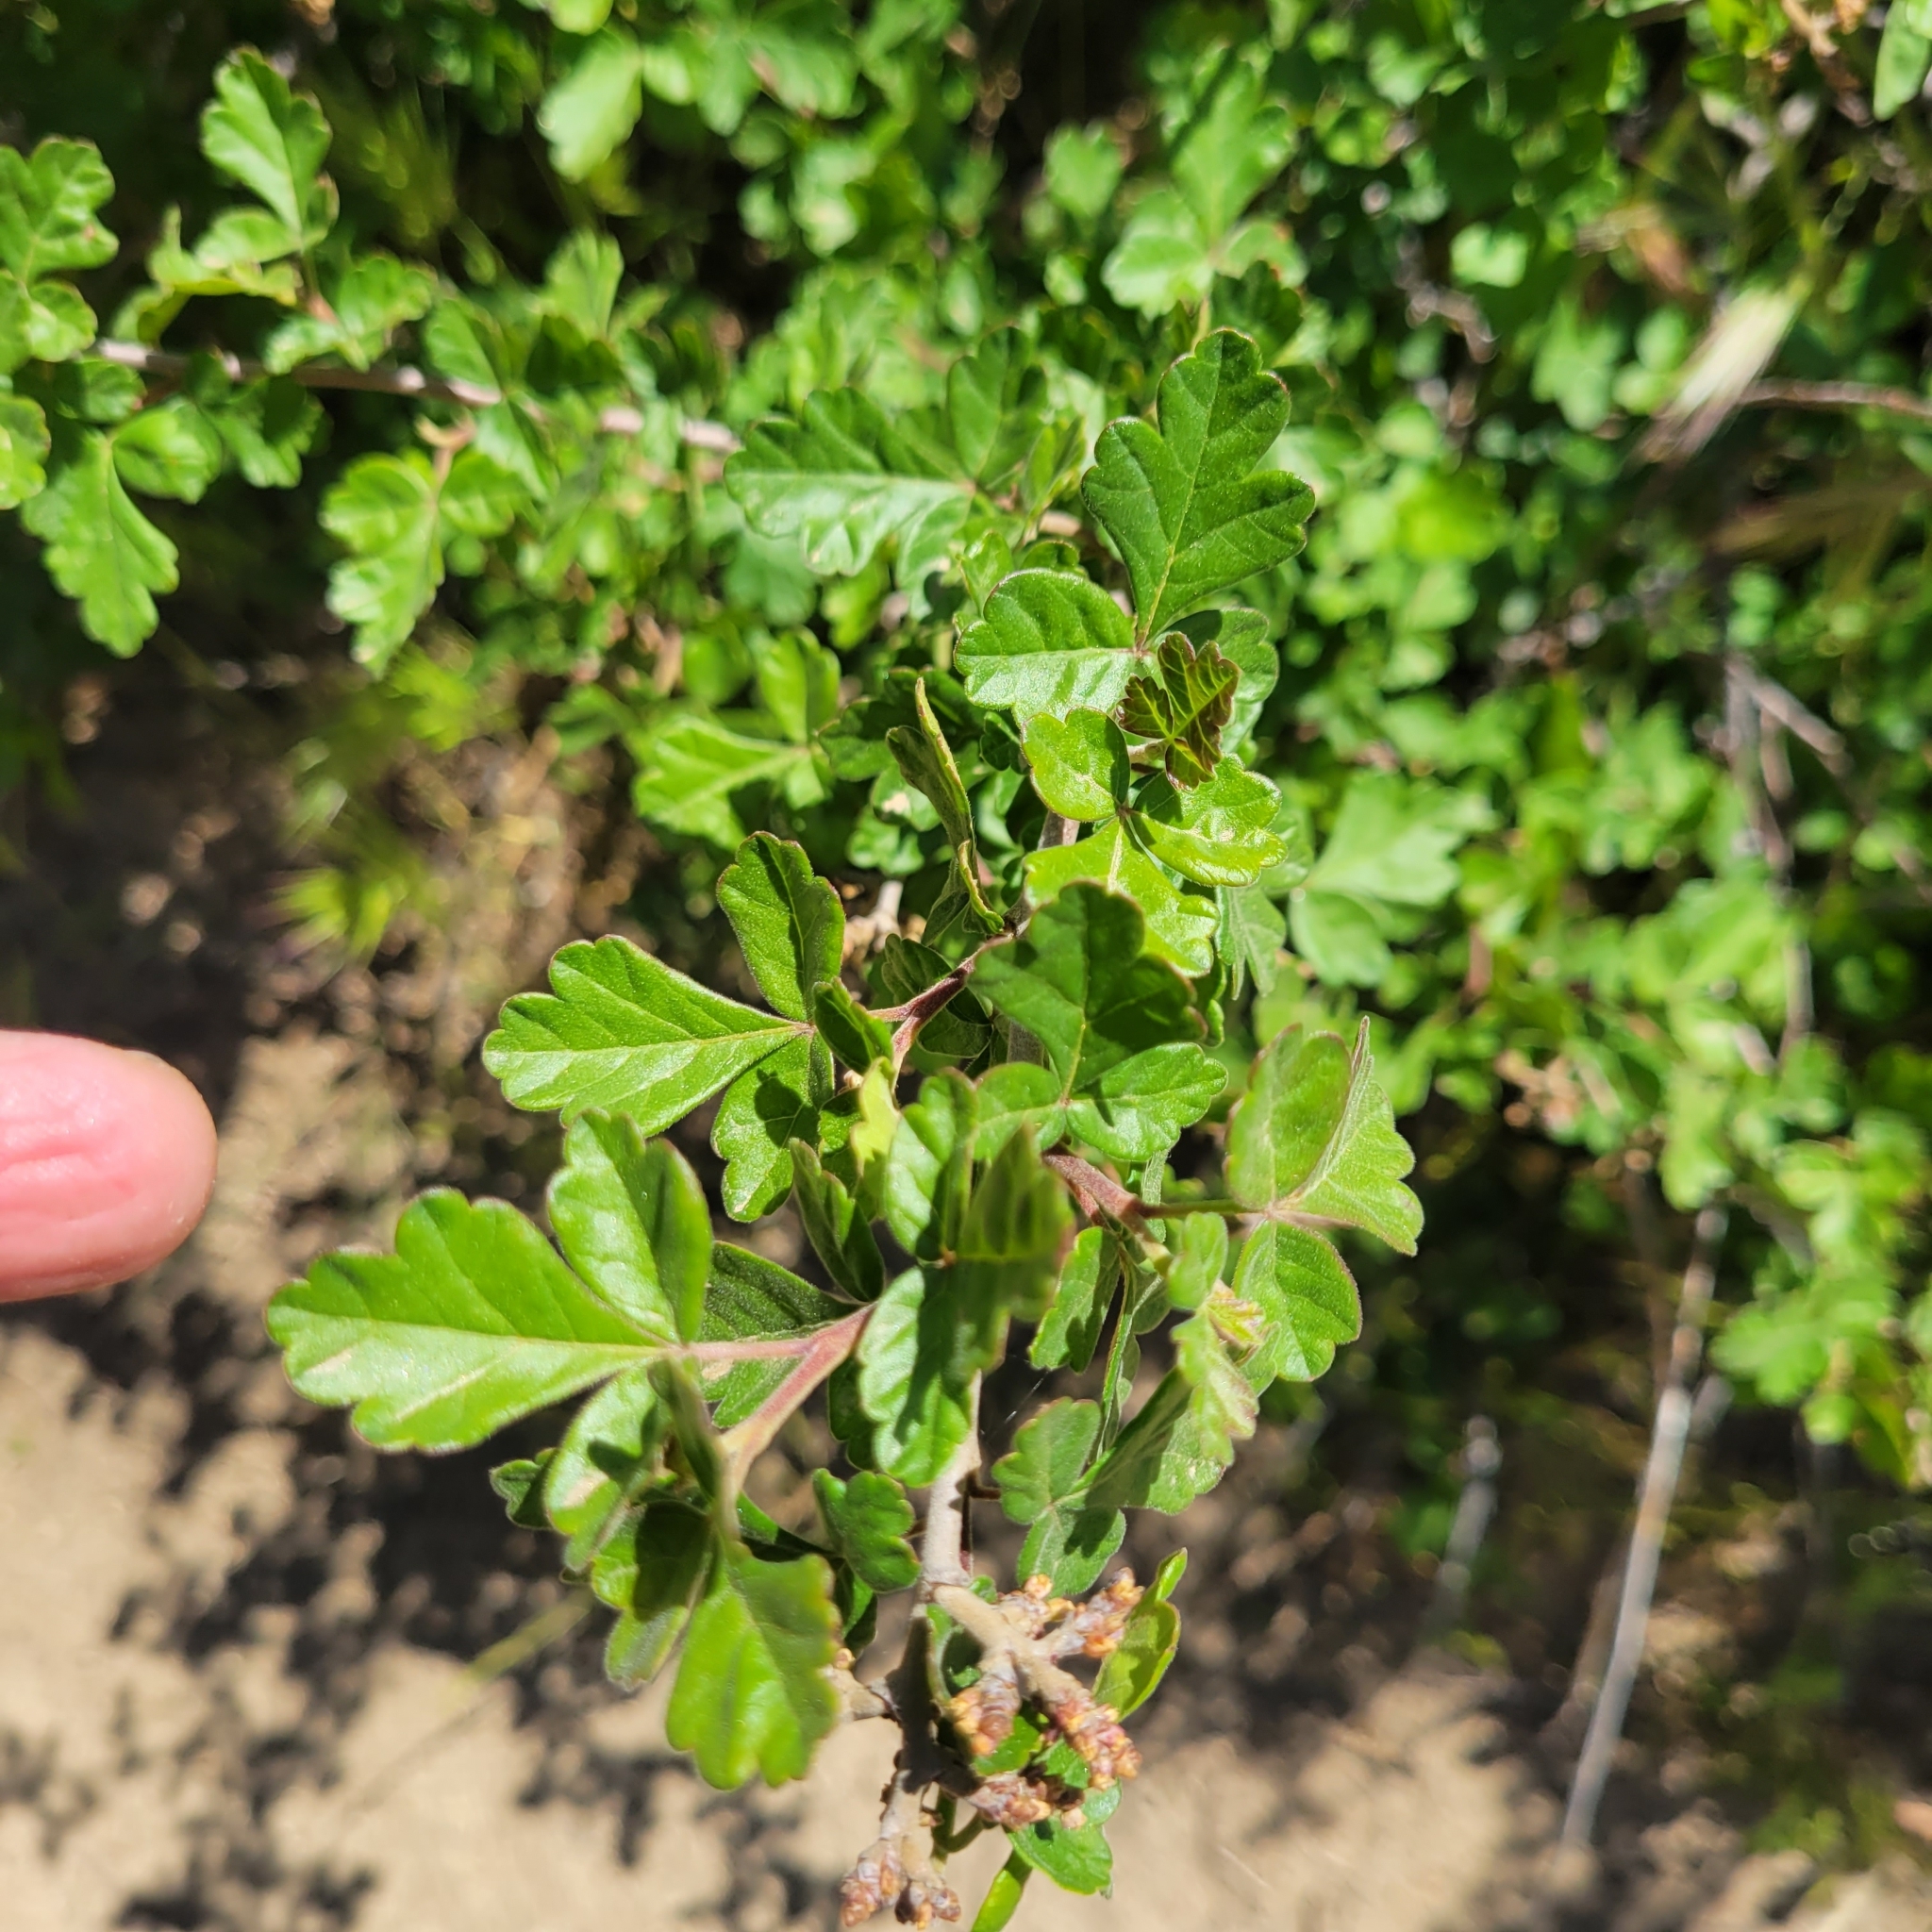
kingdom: Plantae
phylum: Tracheophyta
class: Magnoliopsida
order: Sapindales
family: Anacardiaceae
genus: Rhus
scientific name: Rhus aromatica
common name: Aromatic sumac
